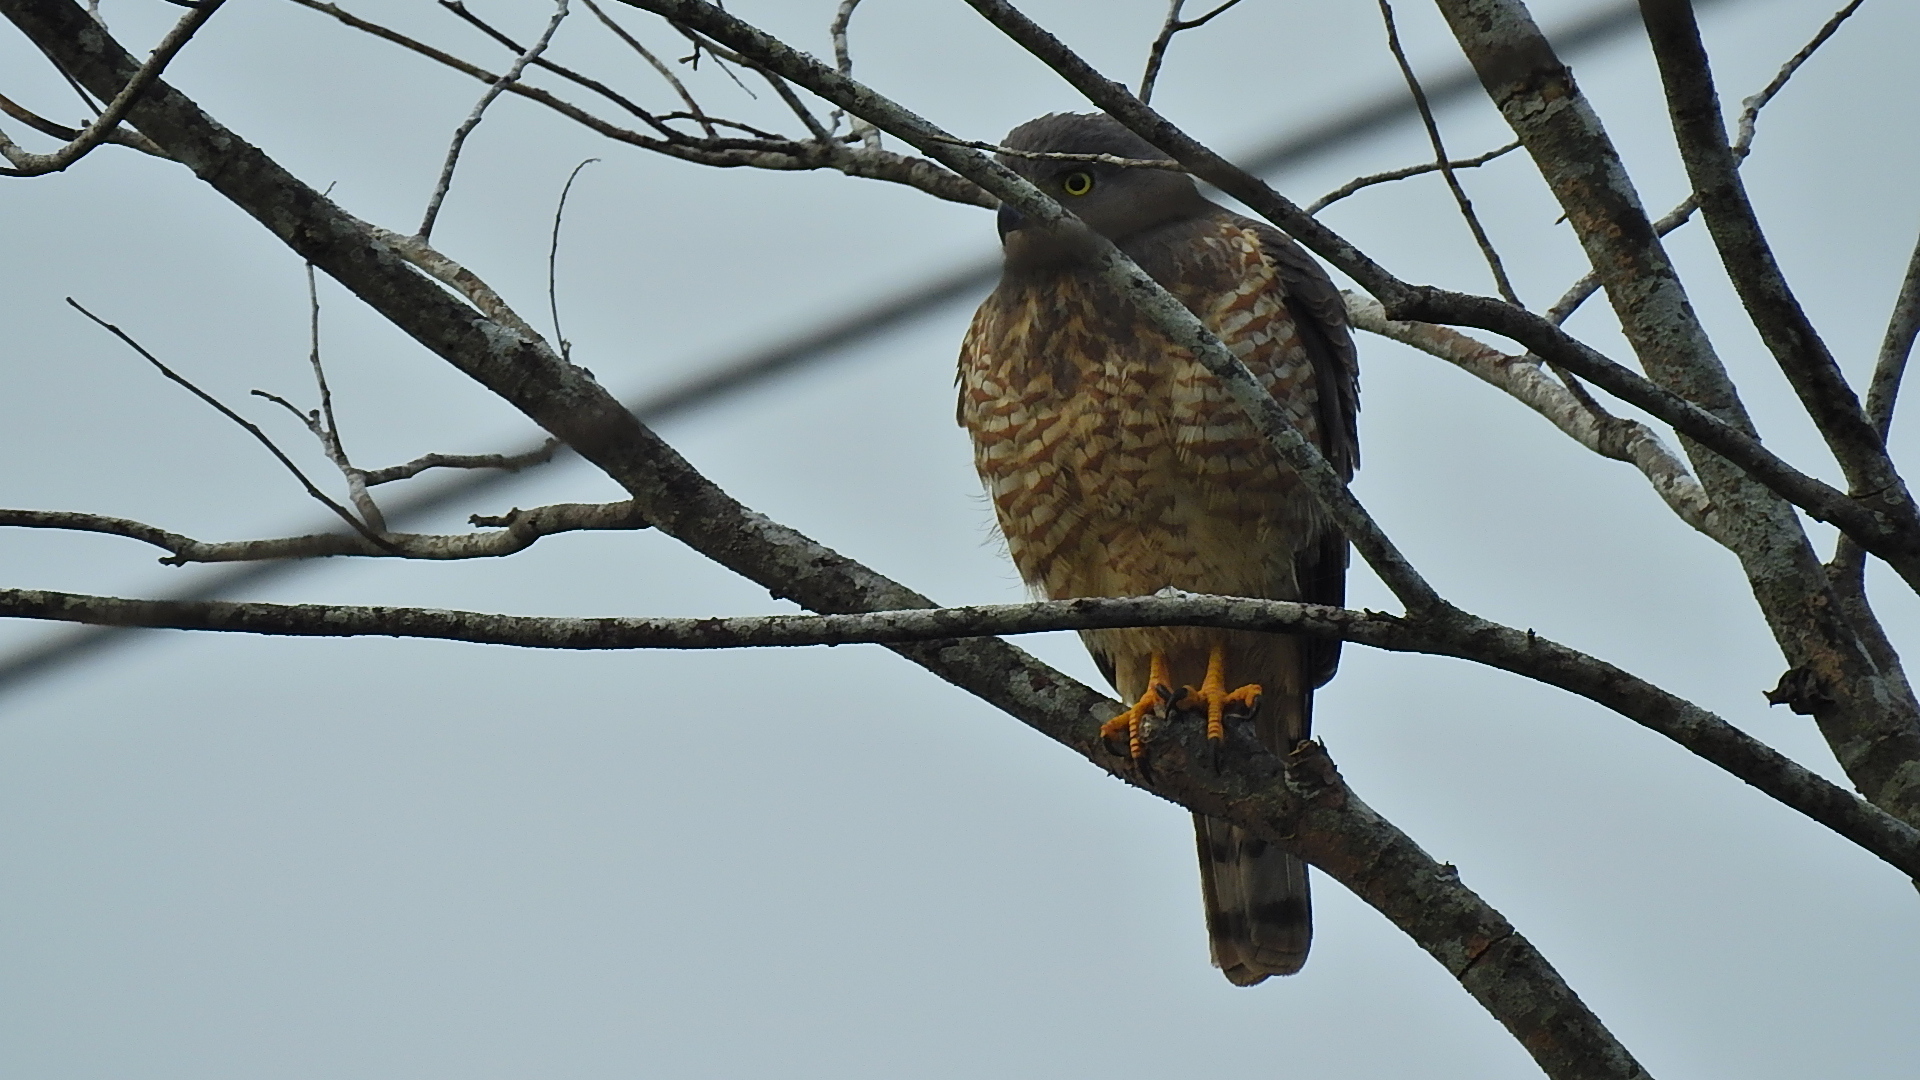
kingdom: Animalia
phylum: Chordata
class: Aves
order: Accipitriformes
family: Accipitridae
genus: Rupornis
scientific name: Rupornis magnirostris
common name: Roadside hawk
